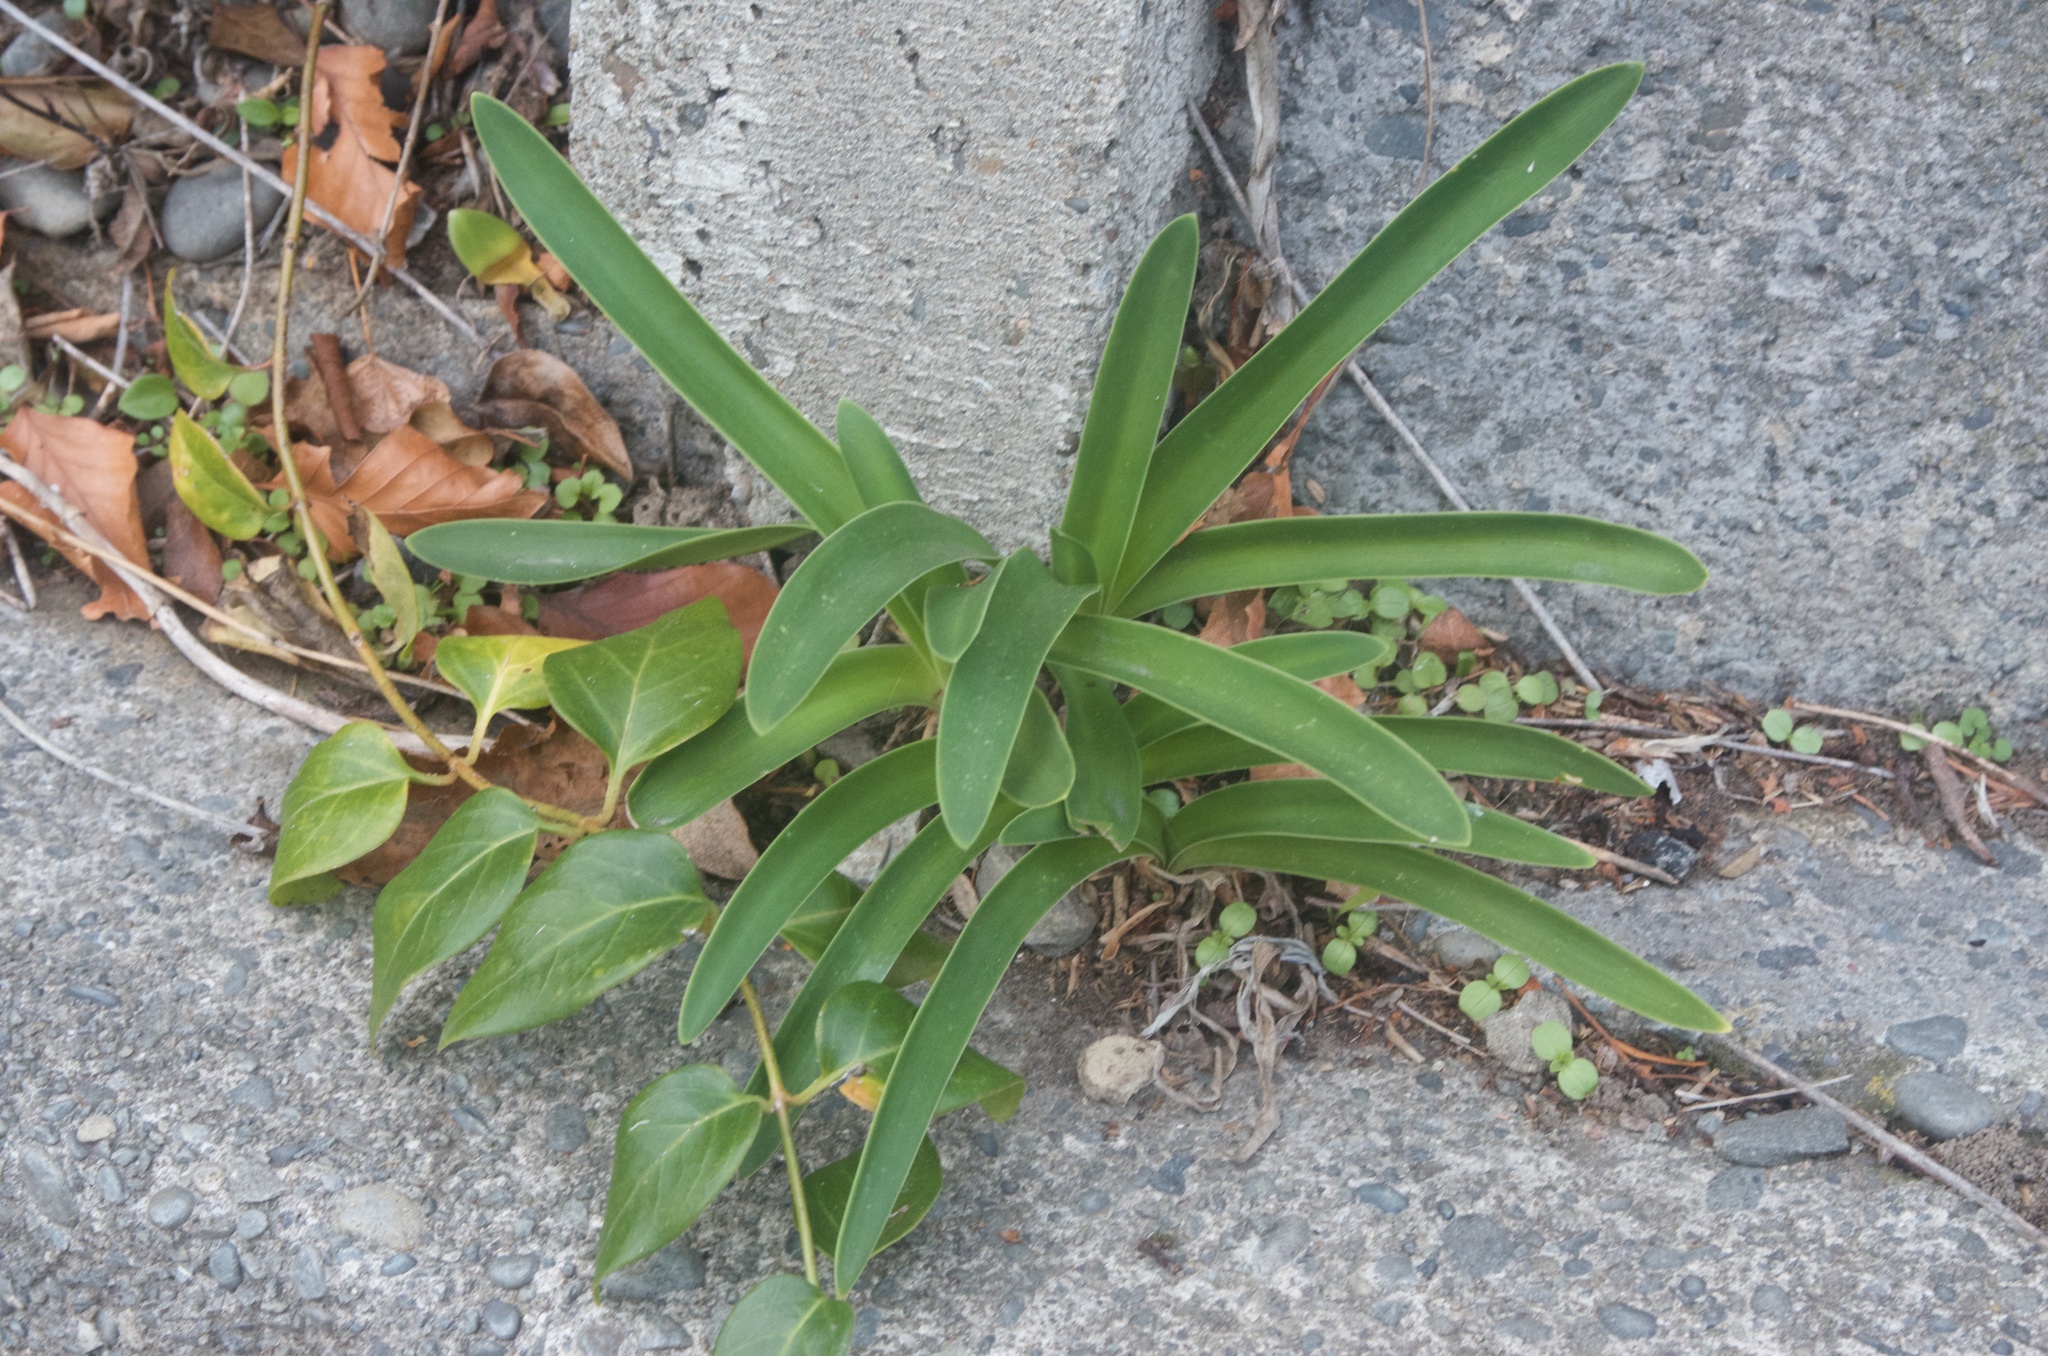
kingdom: Plantae
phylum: Tracheophyta
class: Liliopsida
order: Asparagales
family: Amaryllidaceae
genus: Agapanthus
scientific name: Agapanthus praecox
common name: African-lily
